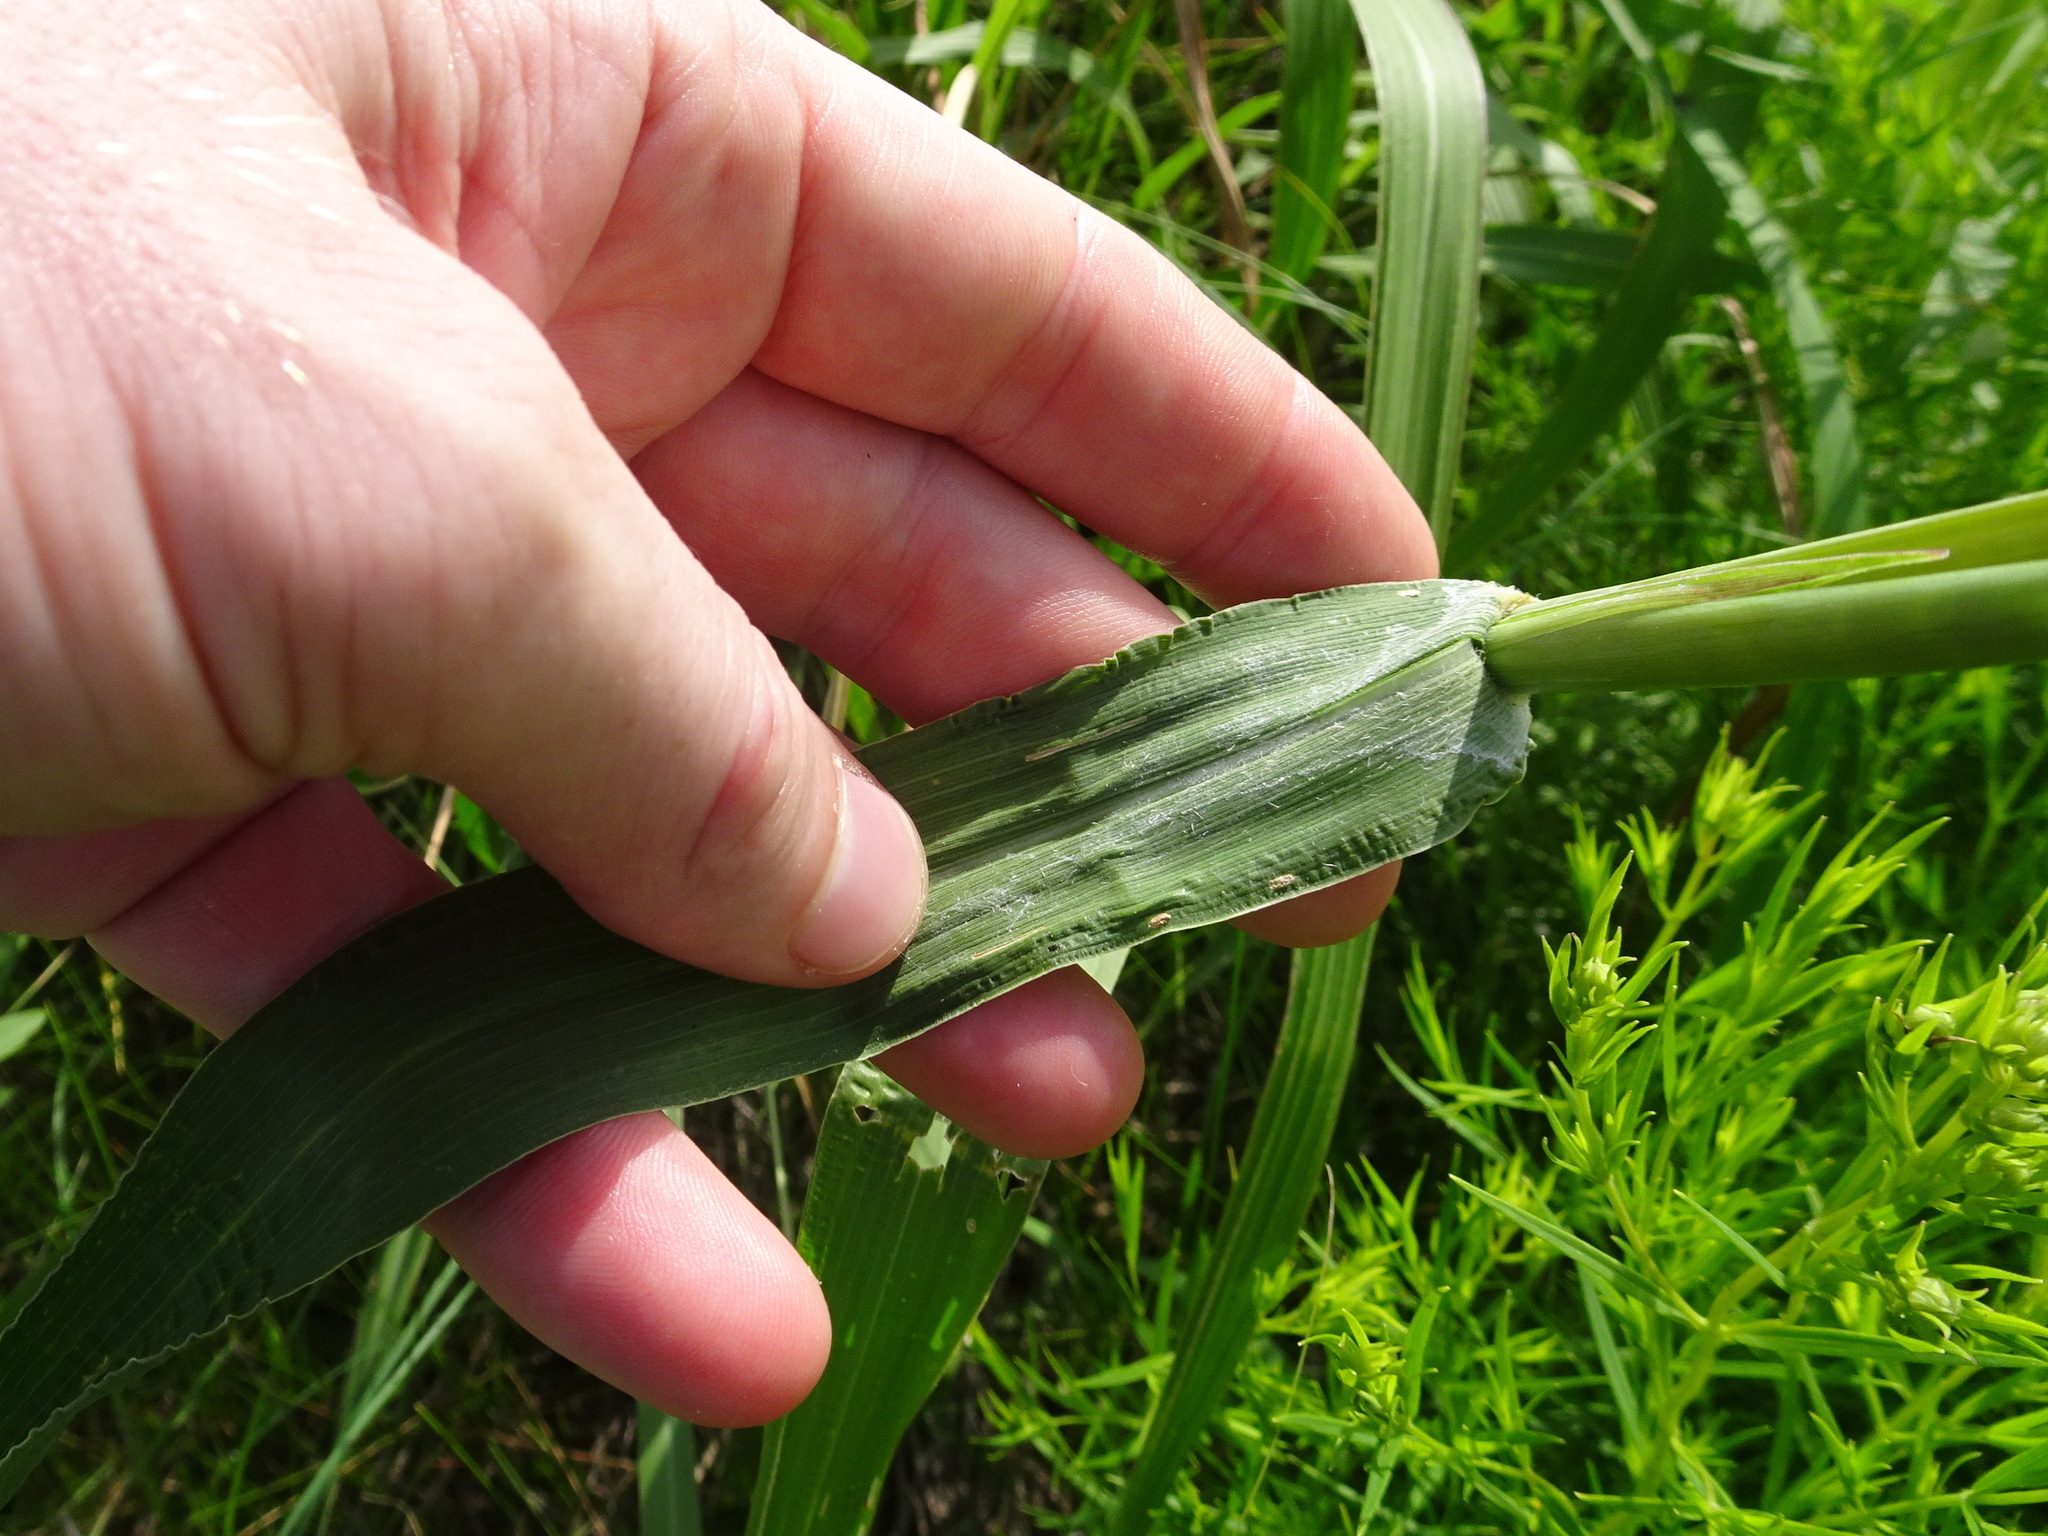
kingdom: Plantae
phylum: Tracheophyta
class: Liliopsida
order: Poales
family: Poaceae
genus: Tripsacum
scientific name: Tripsacum dactyloides
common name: Buffalo-grass
